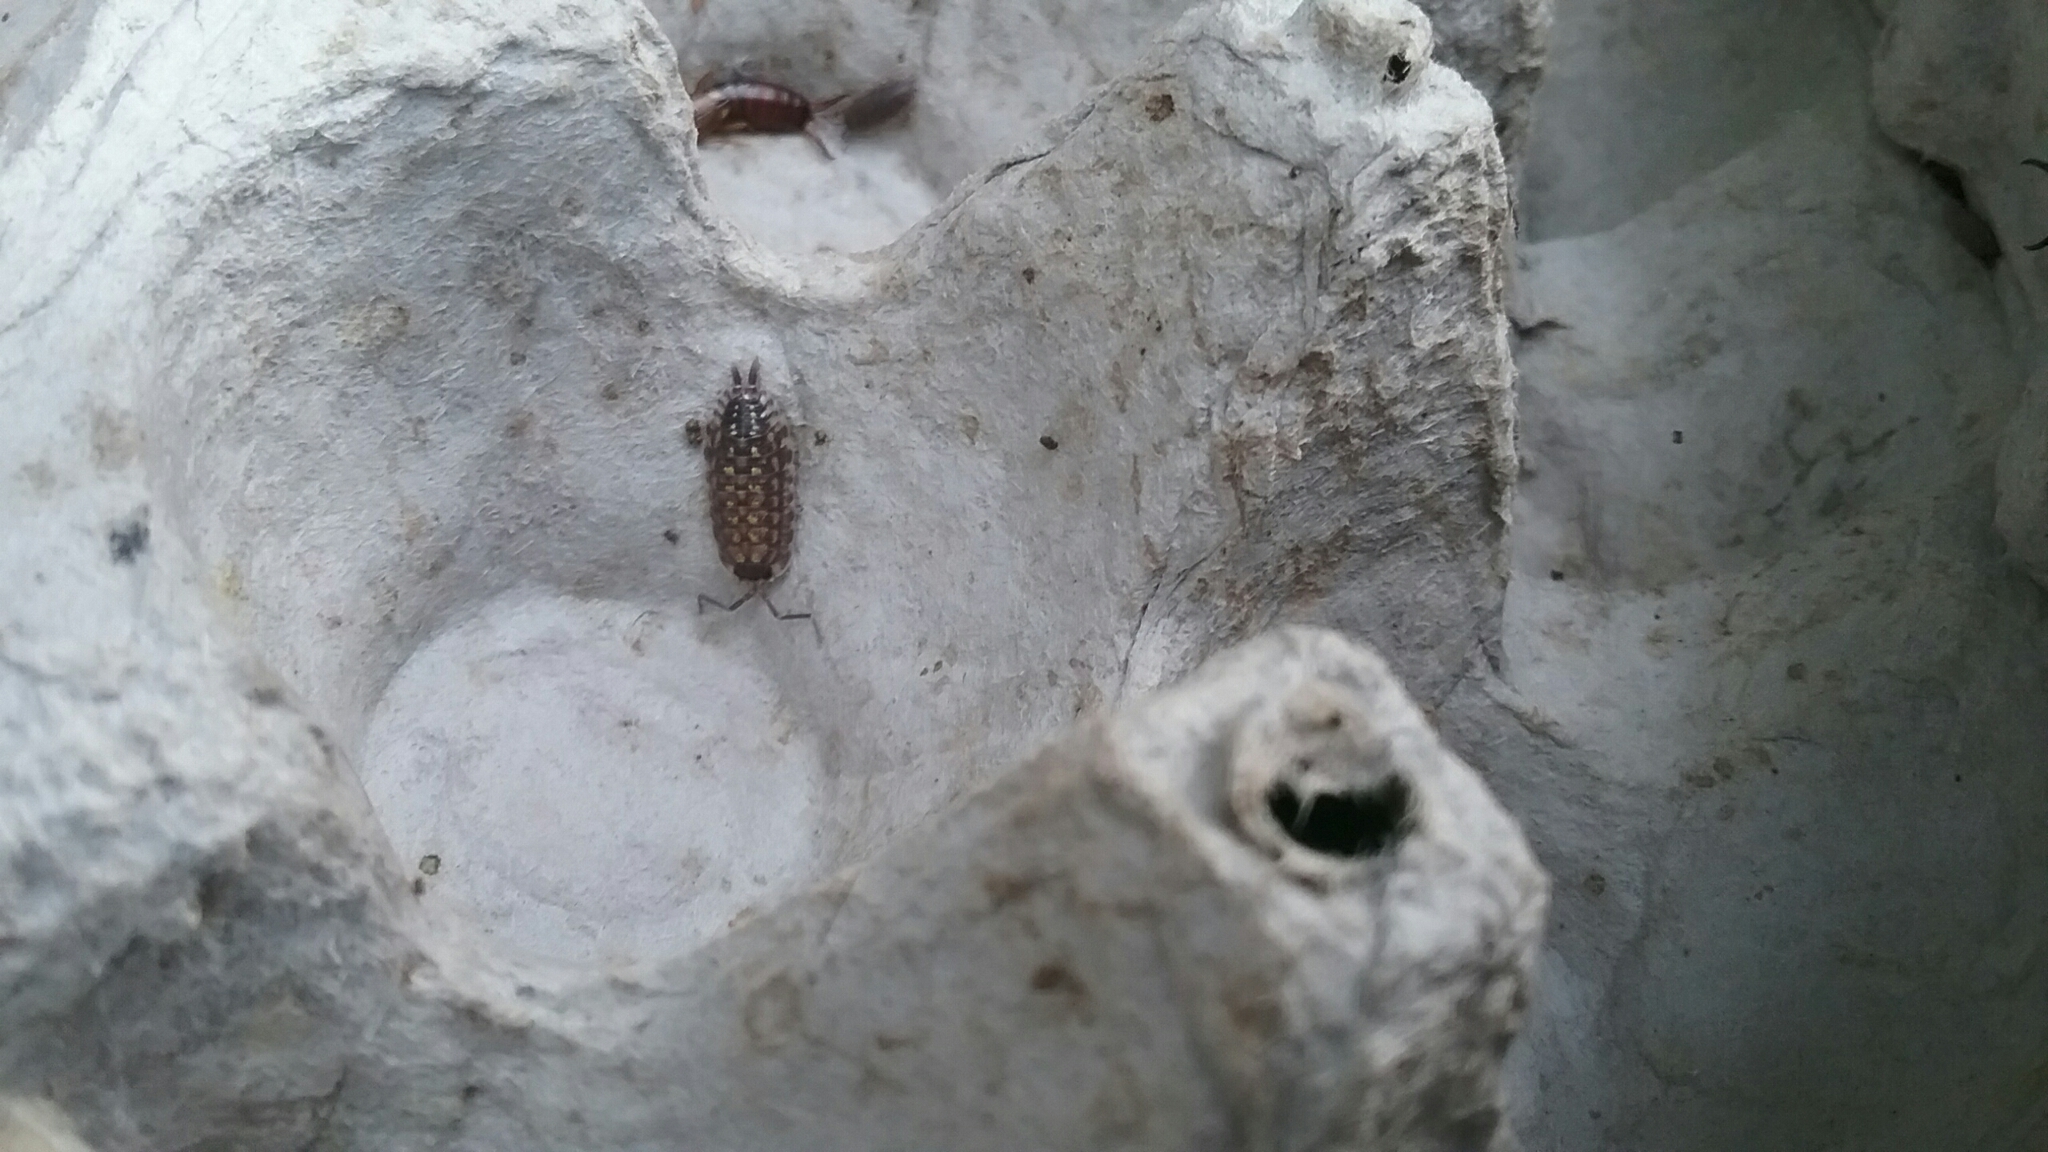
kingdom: Animalia
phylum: Arthropoda
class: Malacostraca
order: Isopoda
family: Porcellionidae
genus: Porcellio
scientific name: Porcellio spinicornis
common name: Painted woodlouse
